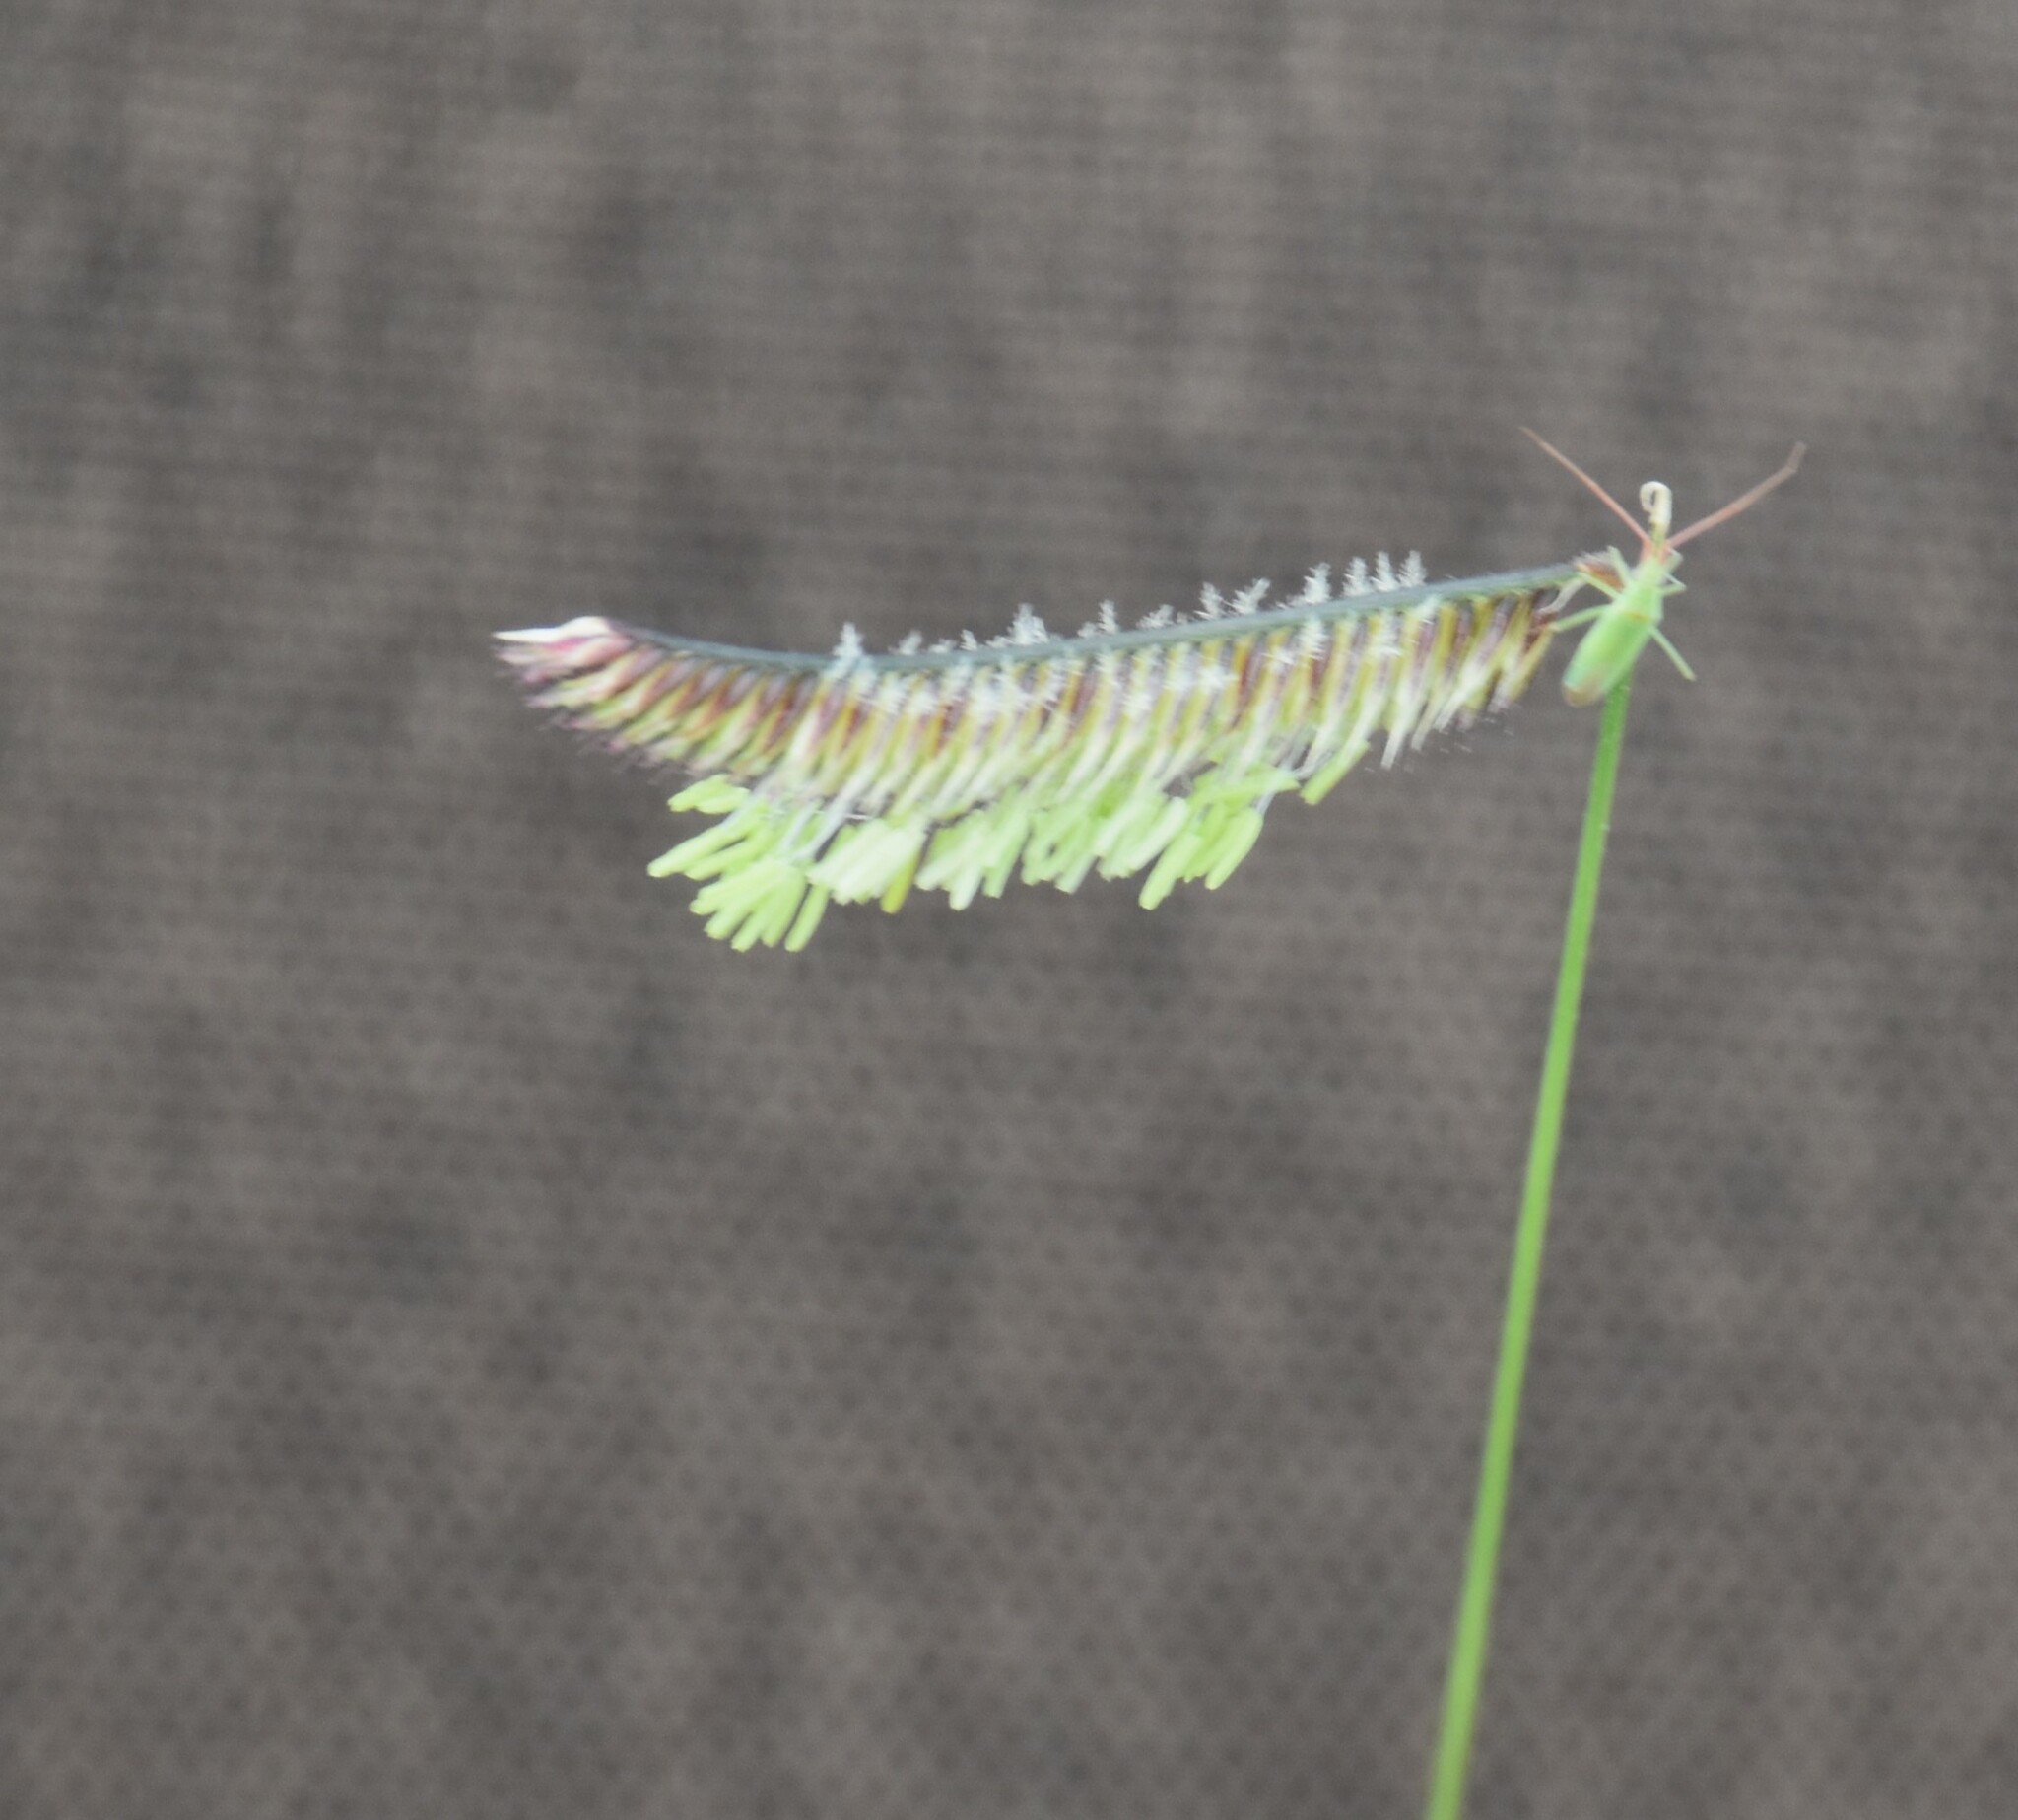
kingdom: Plantae
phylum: Tracheophyta
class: Liliopsida
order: Poales
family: Poaceae
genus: Bouteloua
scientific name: Bouteloua gracilis
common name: Blue grama
